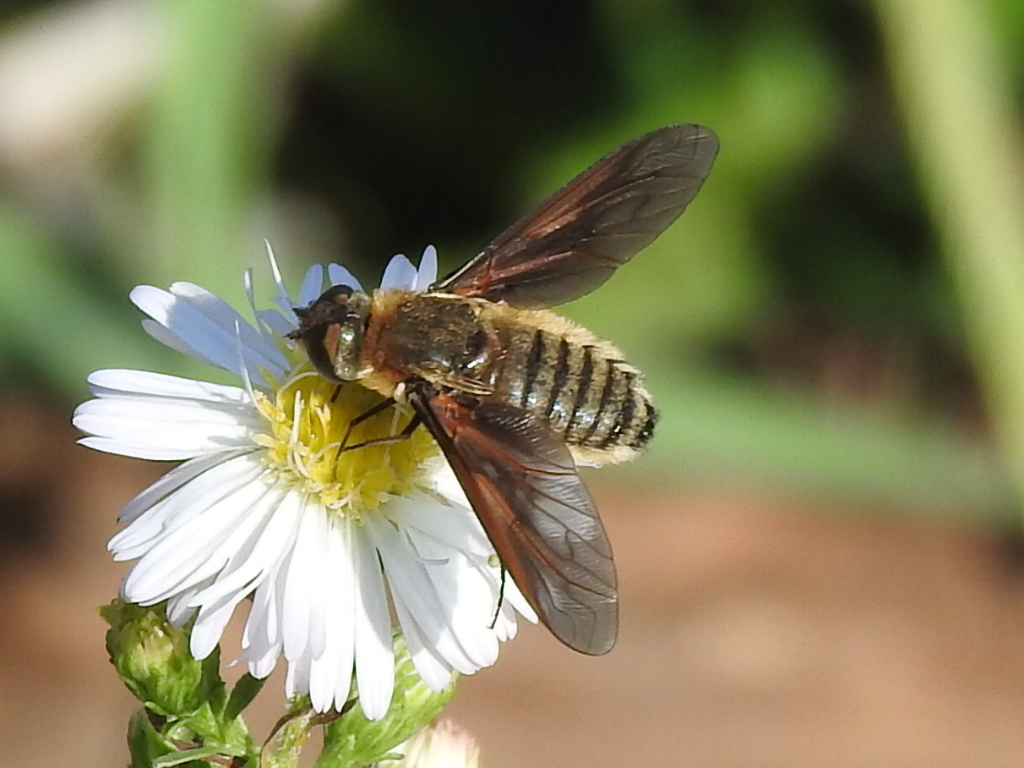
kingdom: Animalia
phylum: Arthropoda
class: Insecta
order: Diptera
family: Bombyliidae
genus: Poecilanthrax
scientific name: Poecilanthrax lucifer
